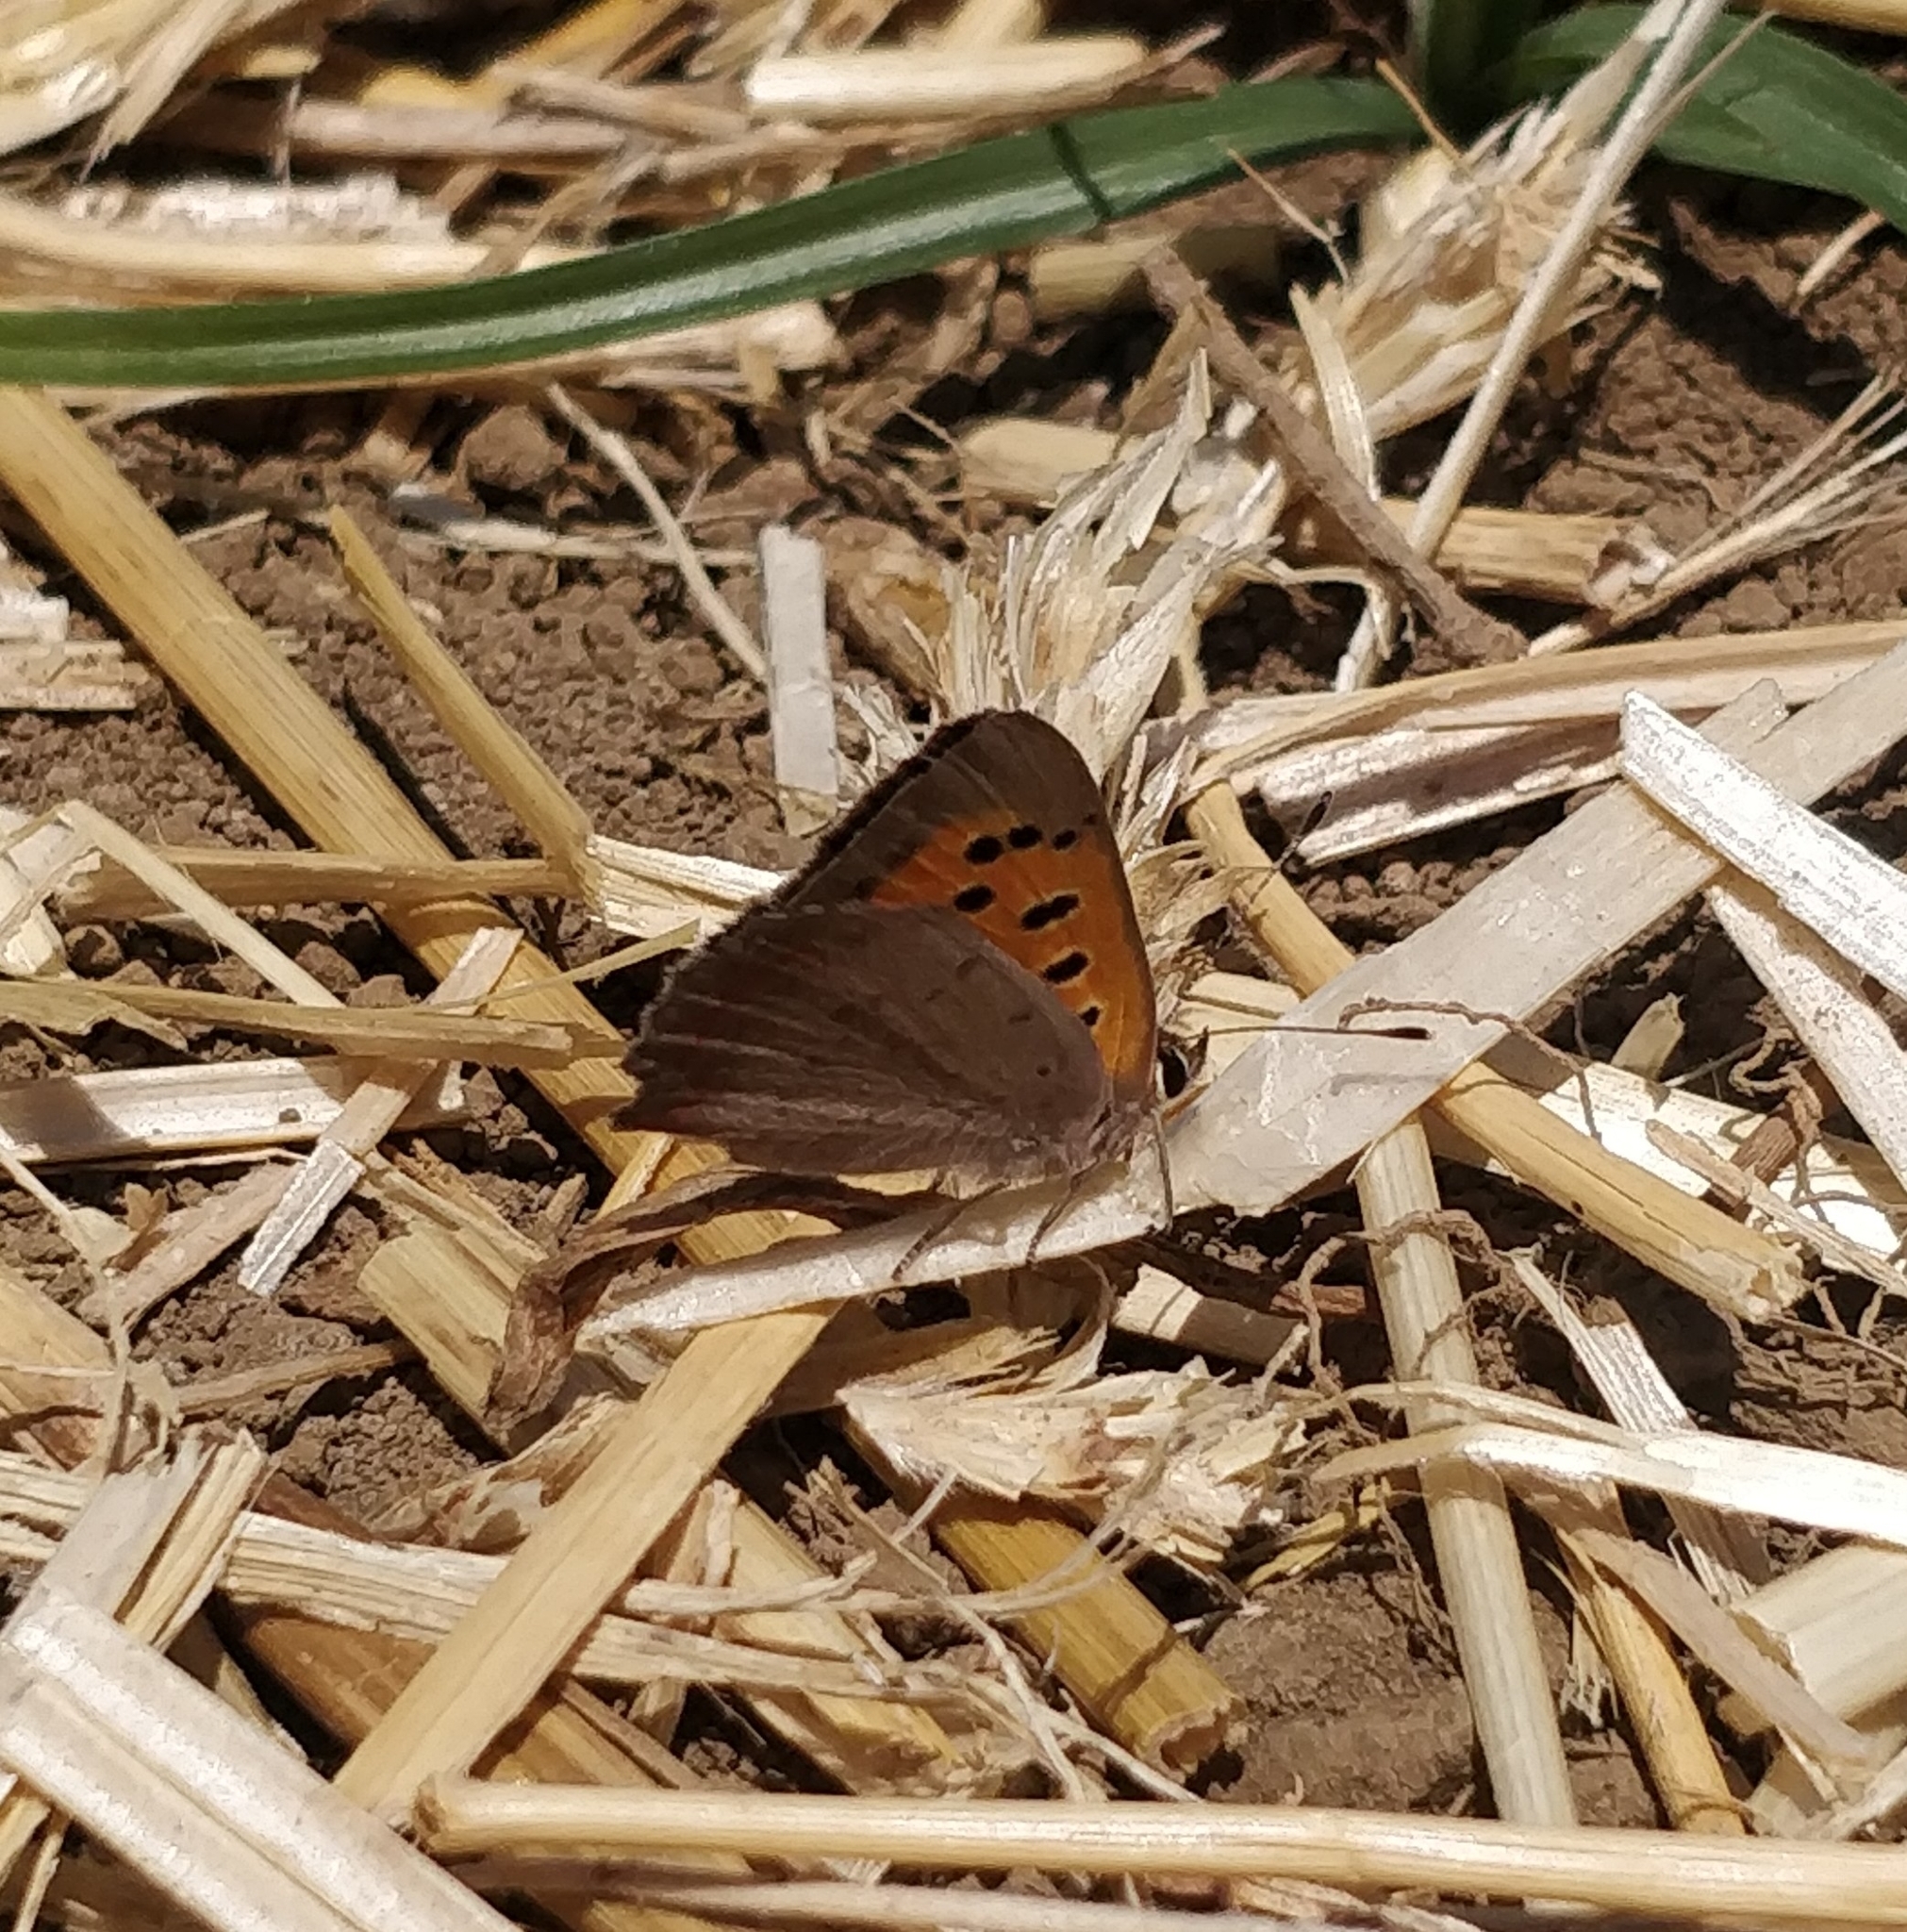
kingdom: Animalia
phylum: Arthropoda
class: Insecta
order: Lepidoptera
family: Lycaenidae
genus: Lycaena
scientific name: Lycaena phlaeas
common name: Small copper
